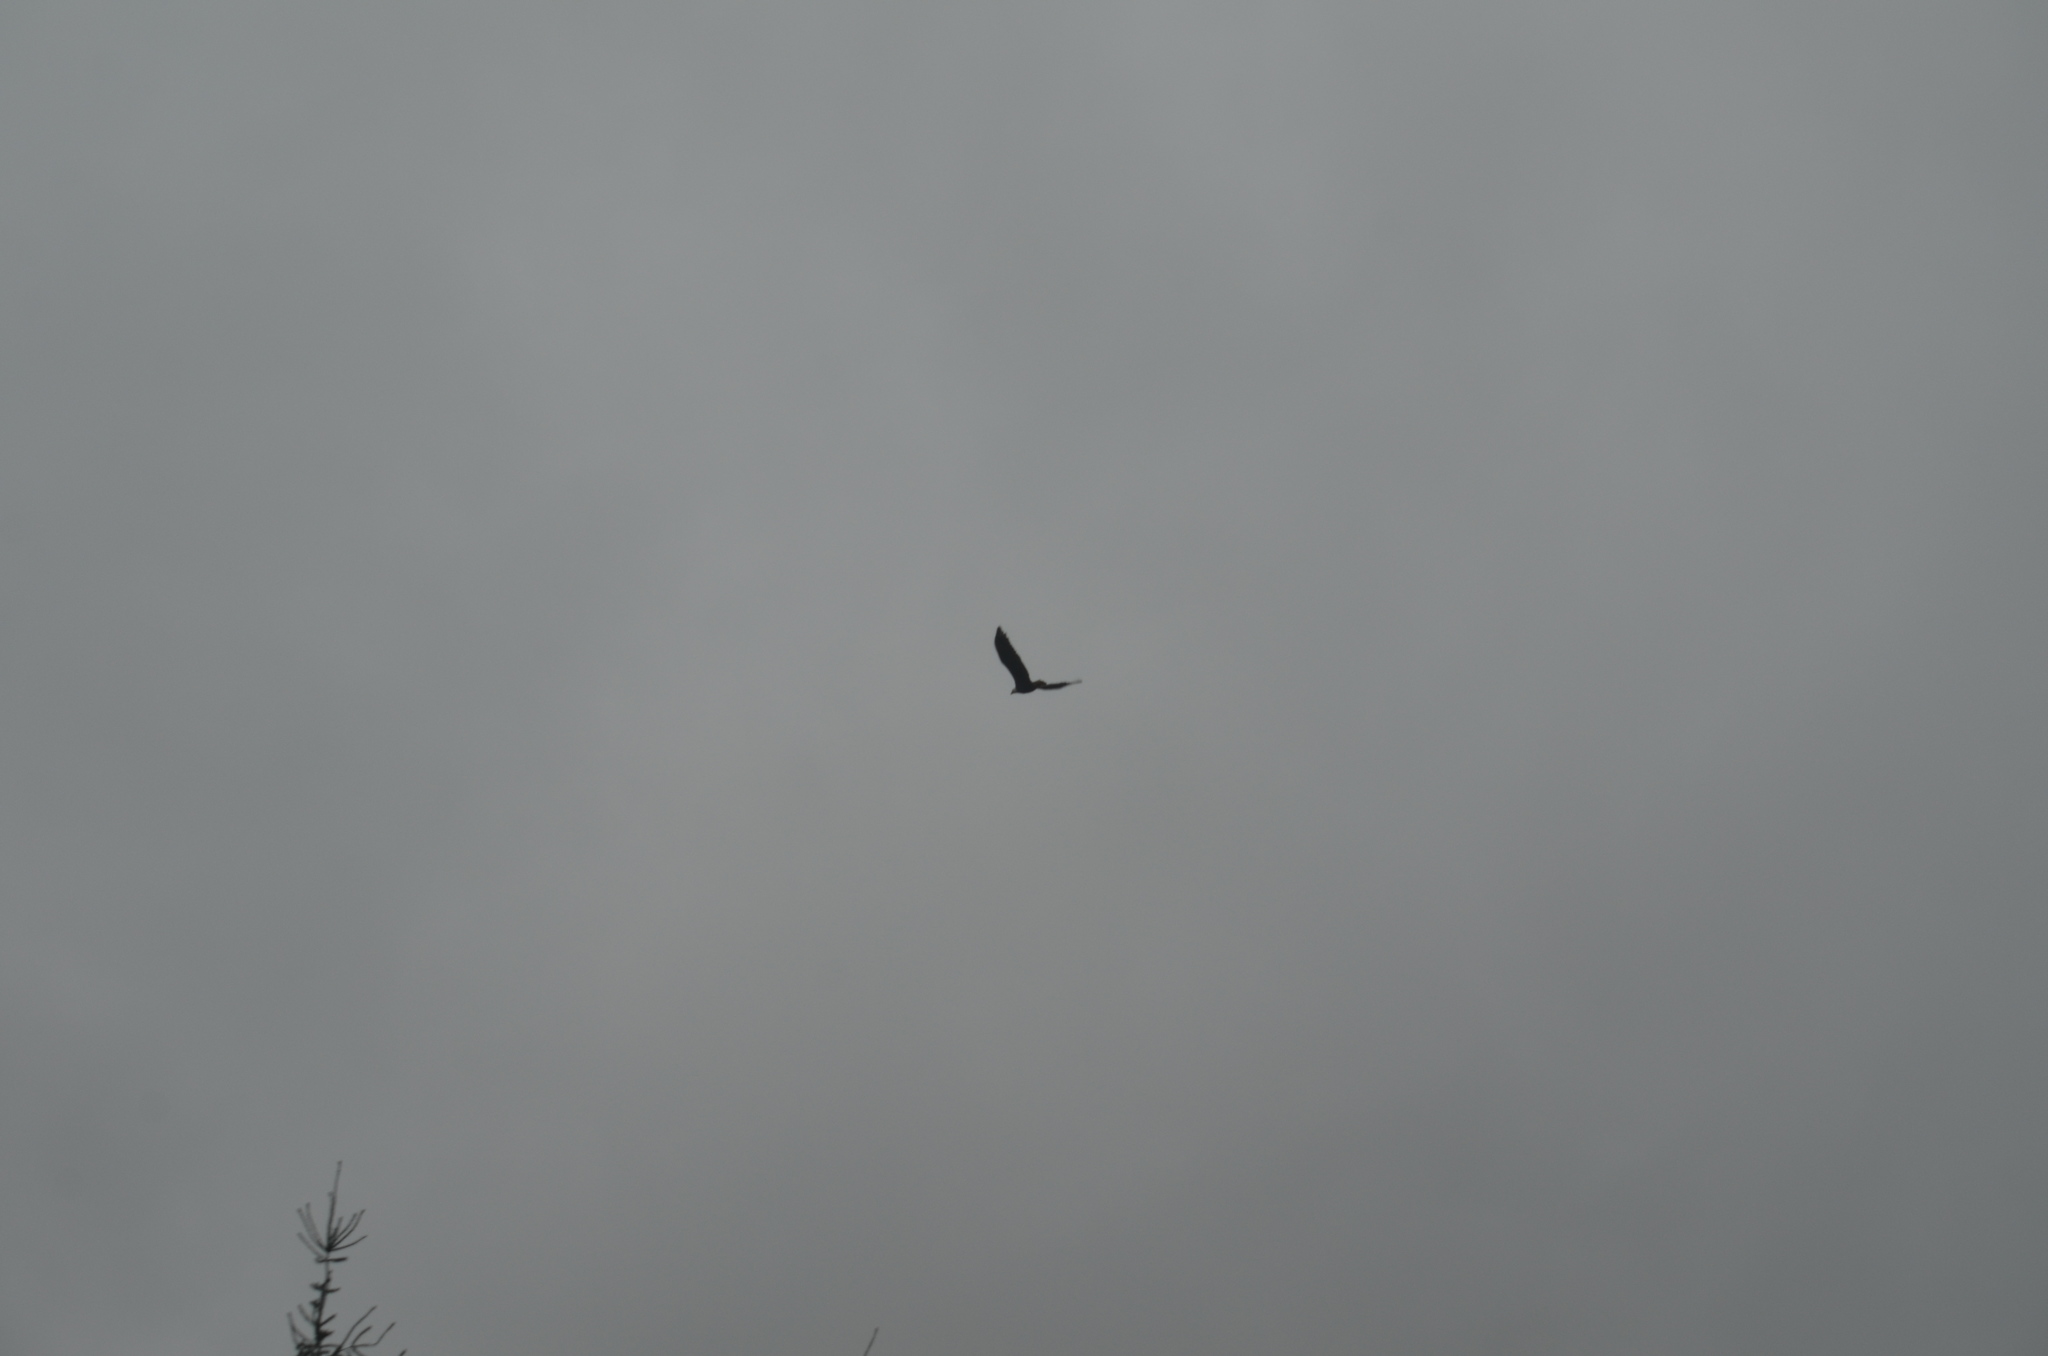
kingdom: Animalia
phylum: Chordata
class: Aves
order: Accipitriformes
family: Accipitridae
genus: Haliaeetus
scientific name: Haliaeetus leucocephalus
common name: Bald eagle
